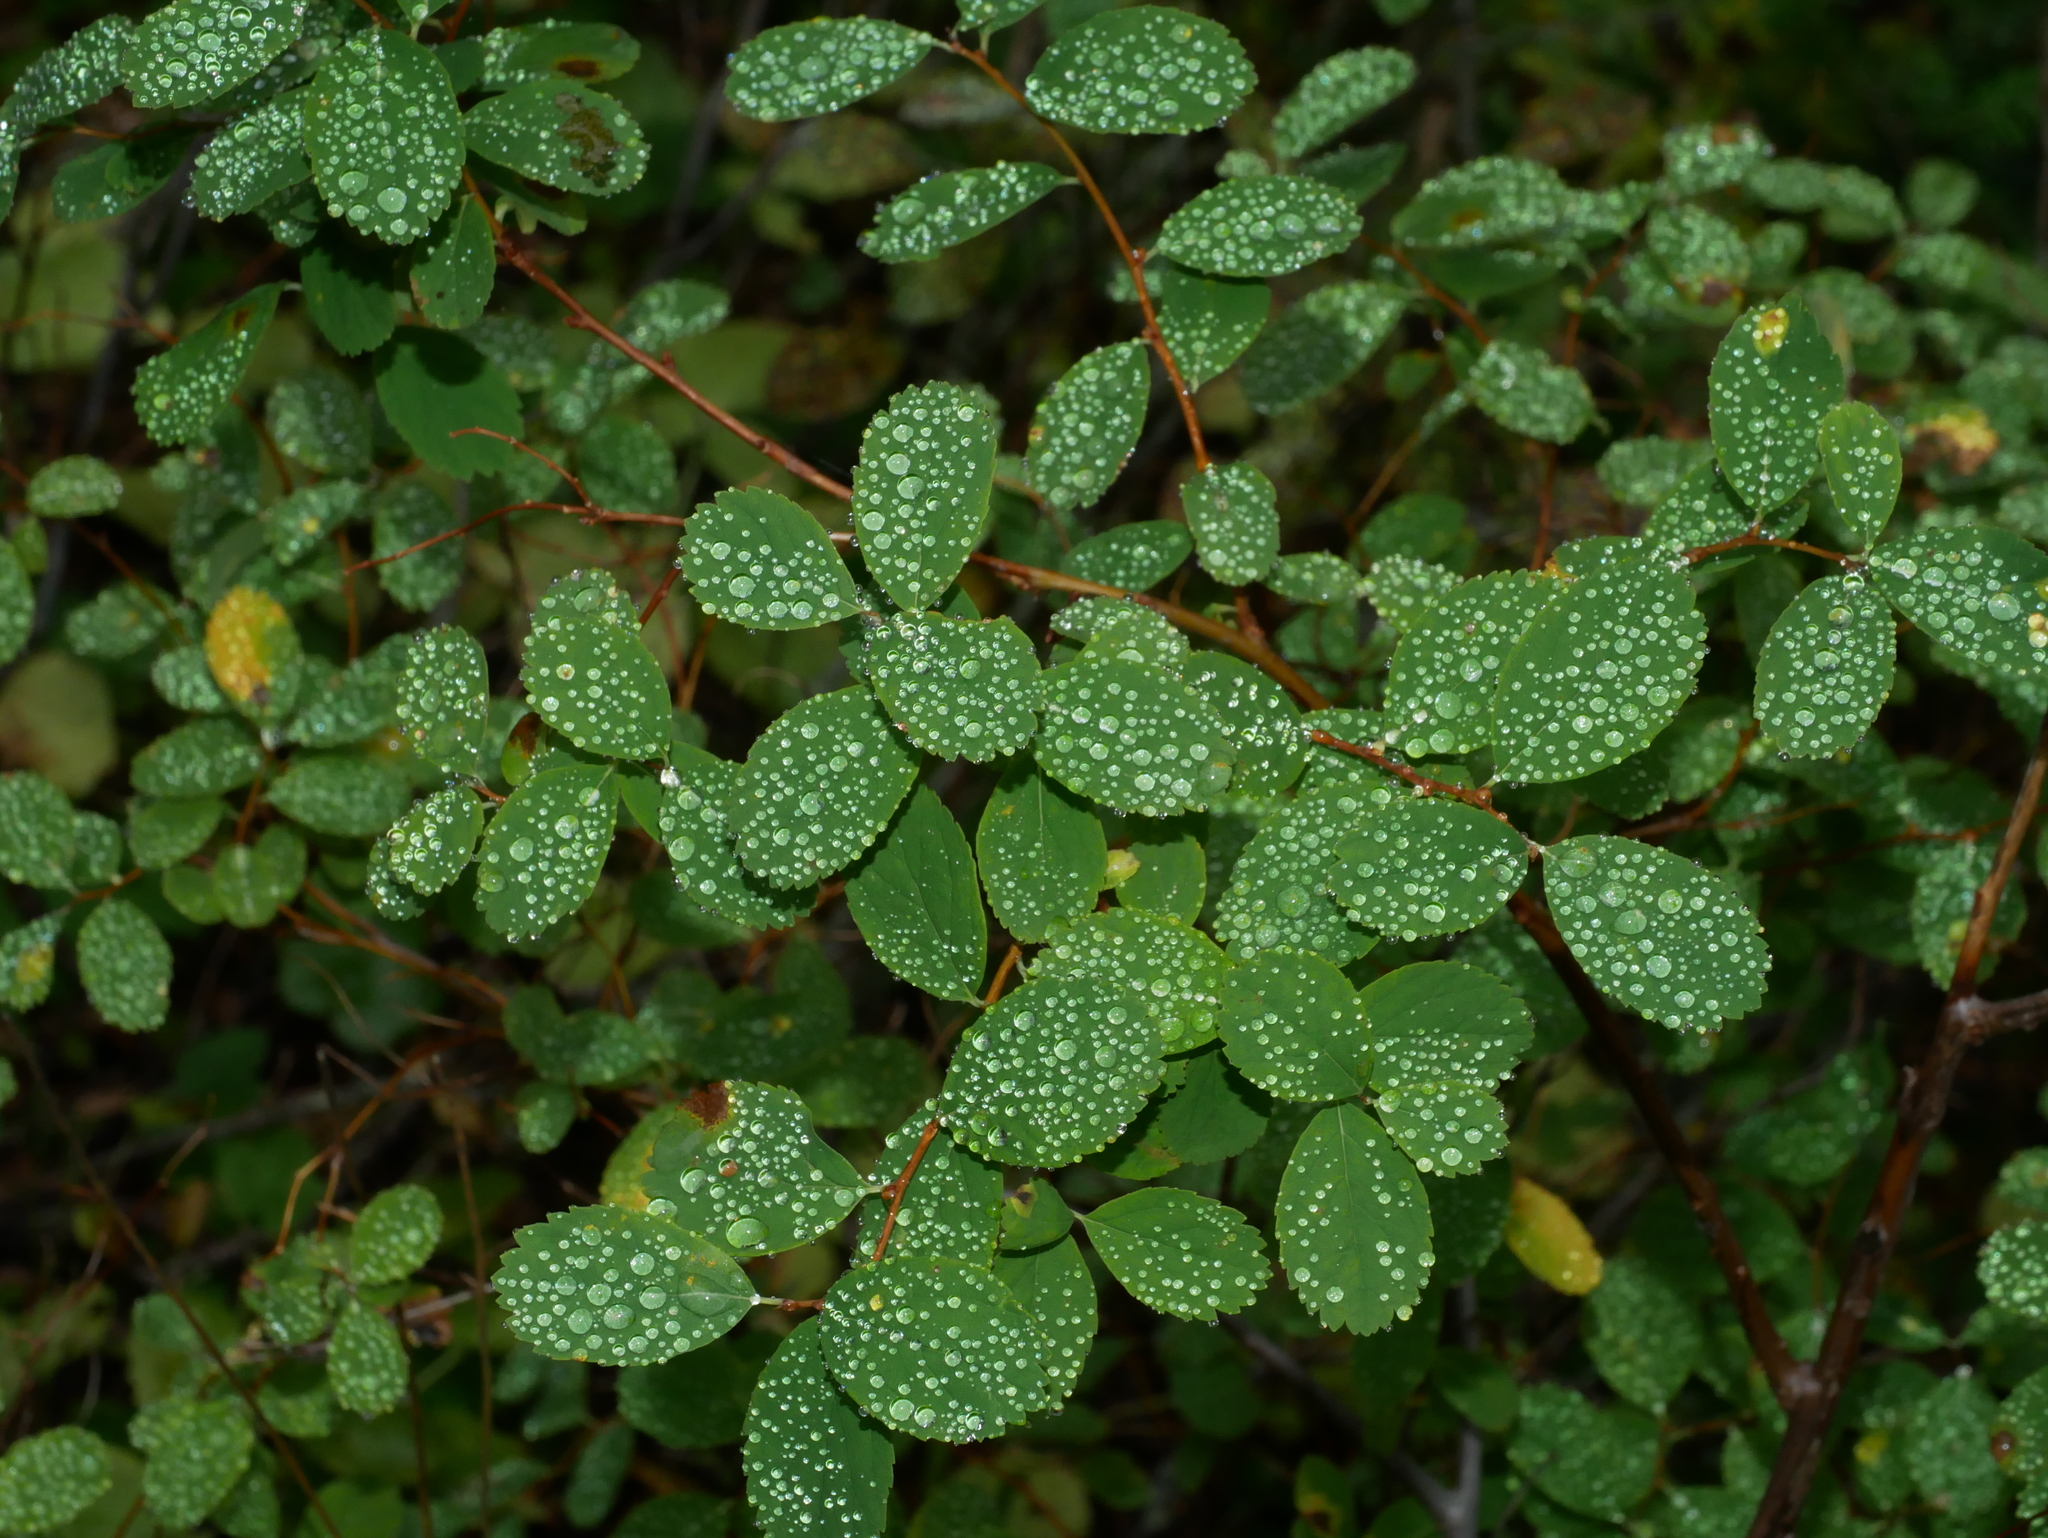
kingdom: Plantae
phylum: Tracheophyta
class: Magnoliopsida
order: Rosales
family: Rosaceae
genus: Spiraea
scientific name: Spiraea splendens
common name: Subalpine meadowsweet
